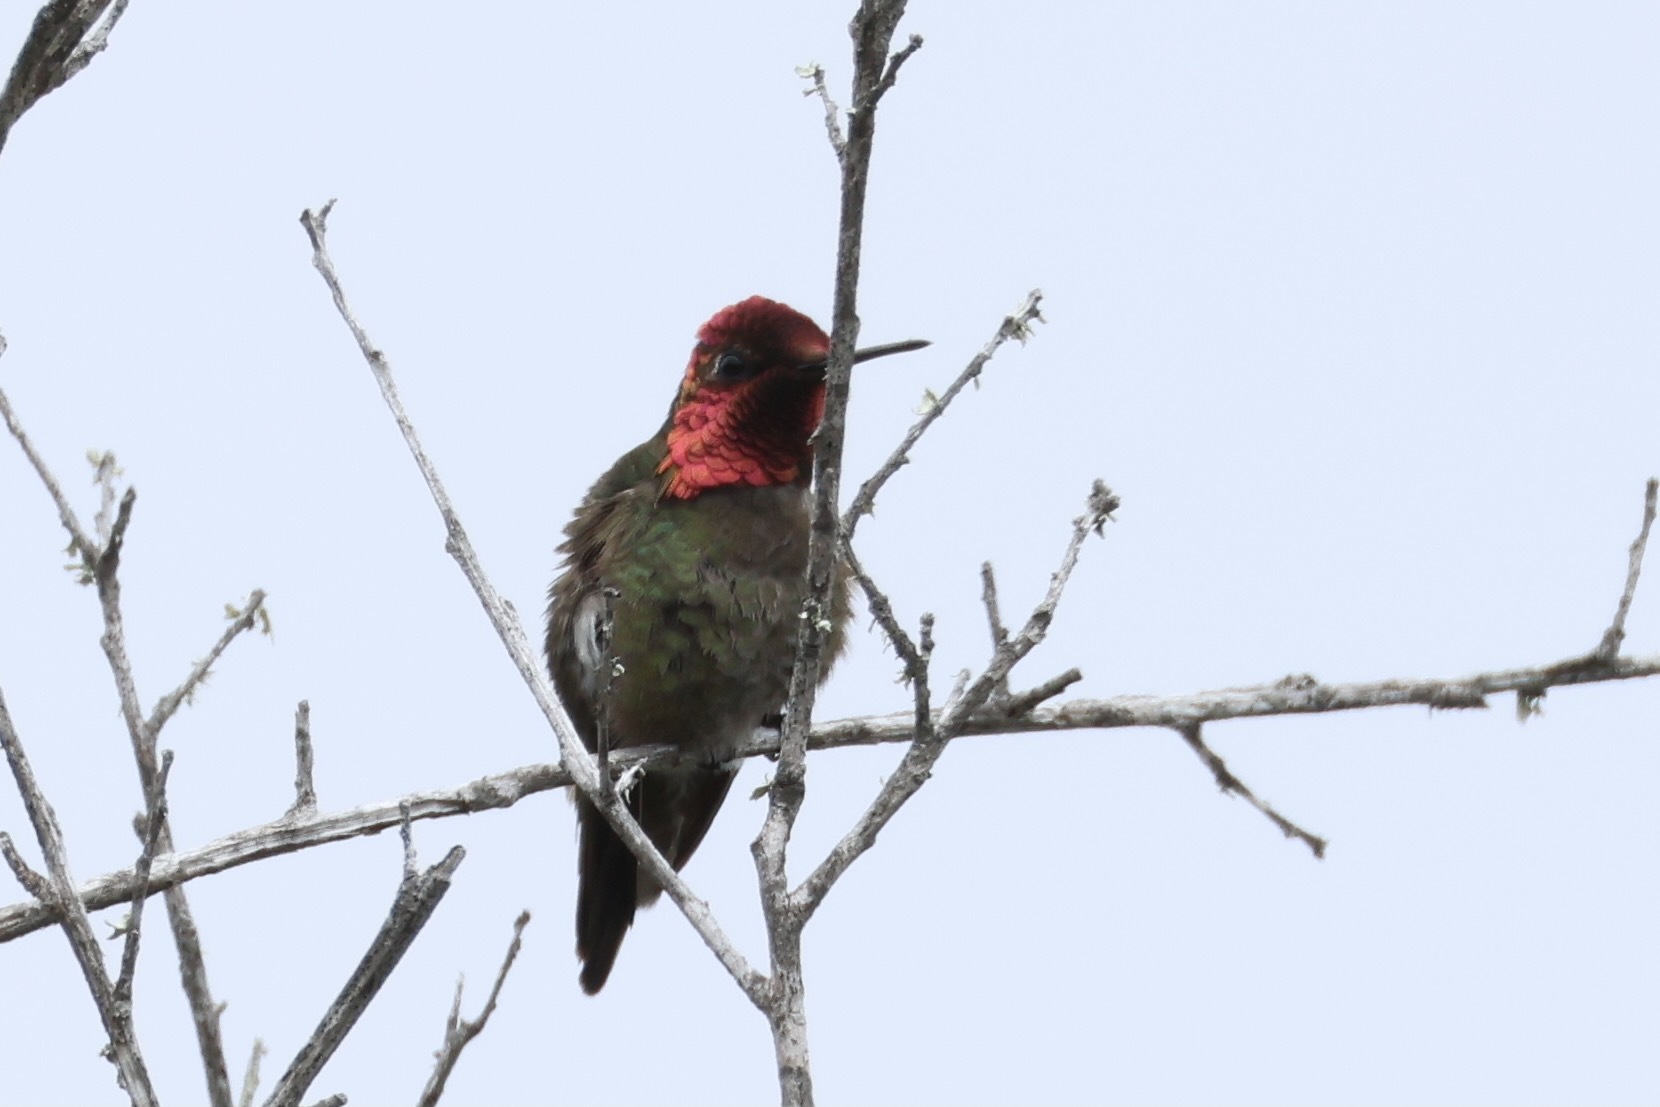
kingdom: Animalia
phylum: Chordata
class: Aves
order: Apodiformes
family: Trochilidae
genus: Calypte
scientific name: Calypte anna
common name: Anna's hummingbird
